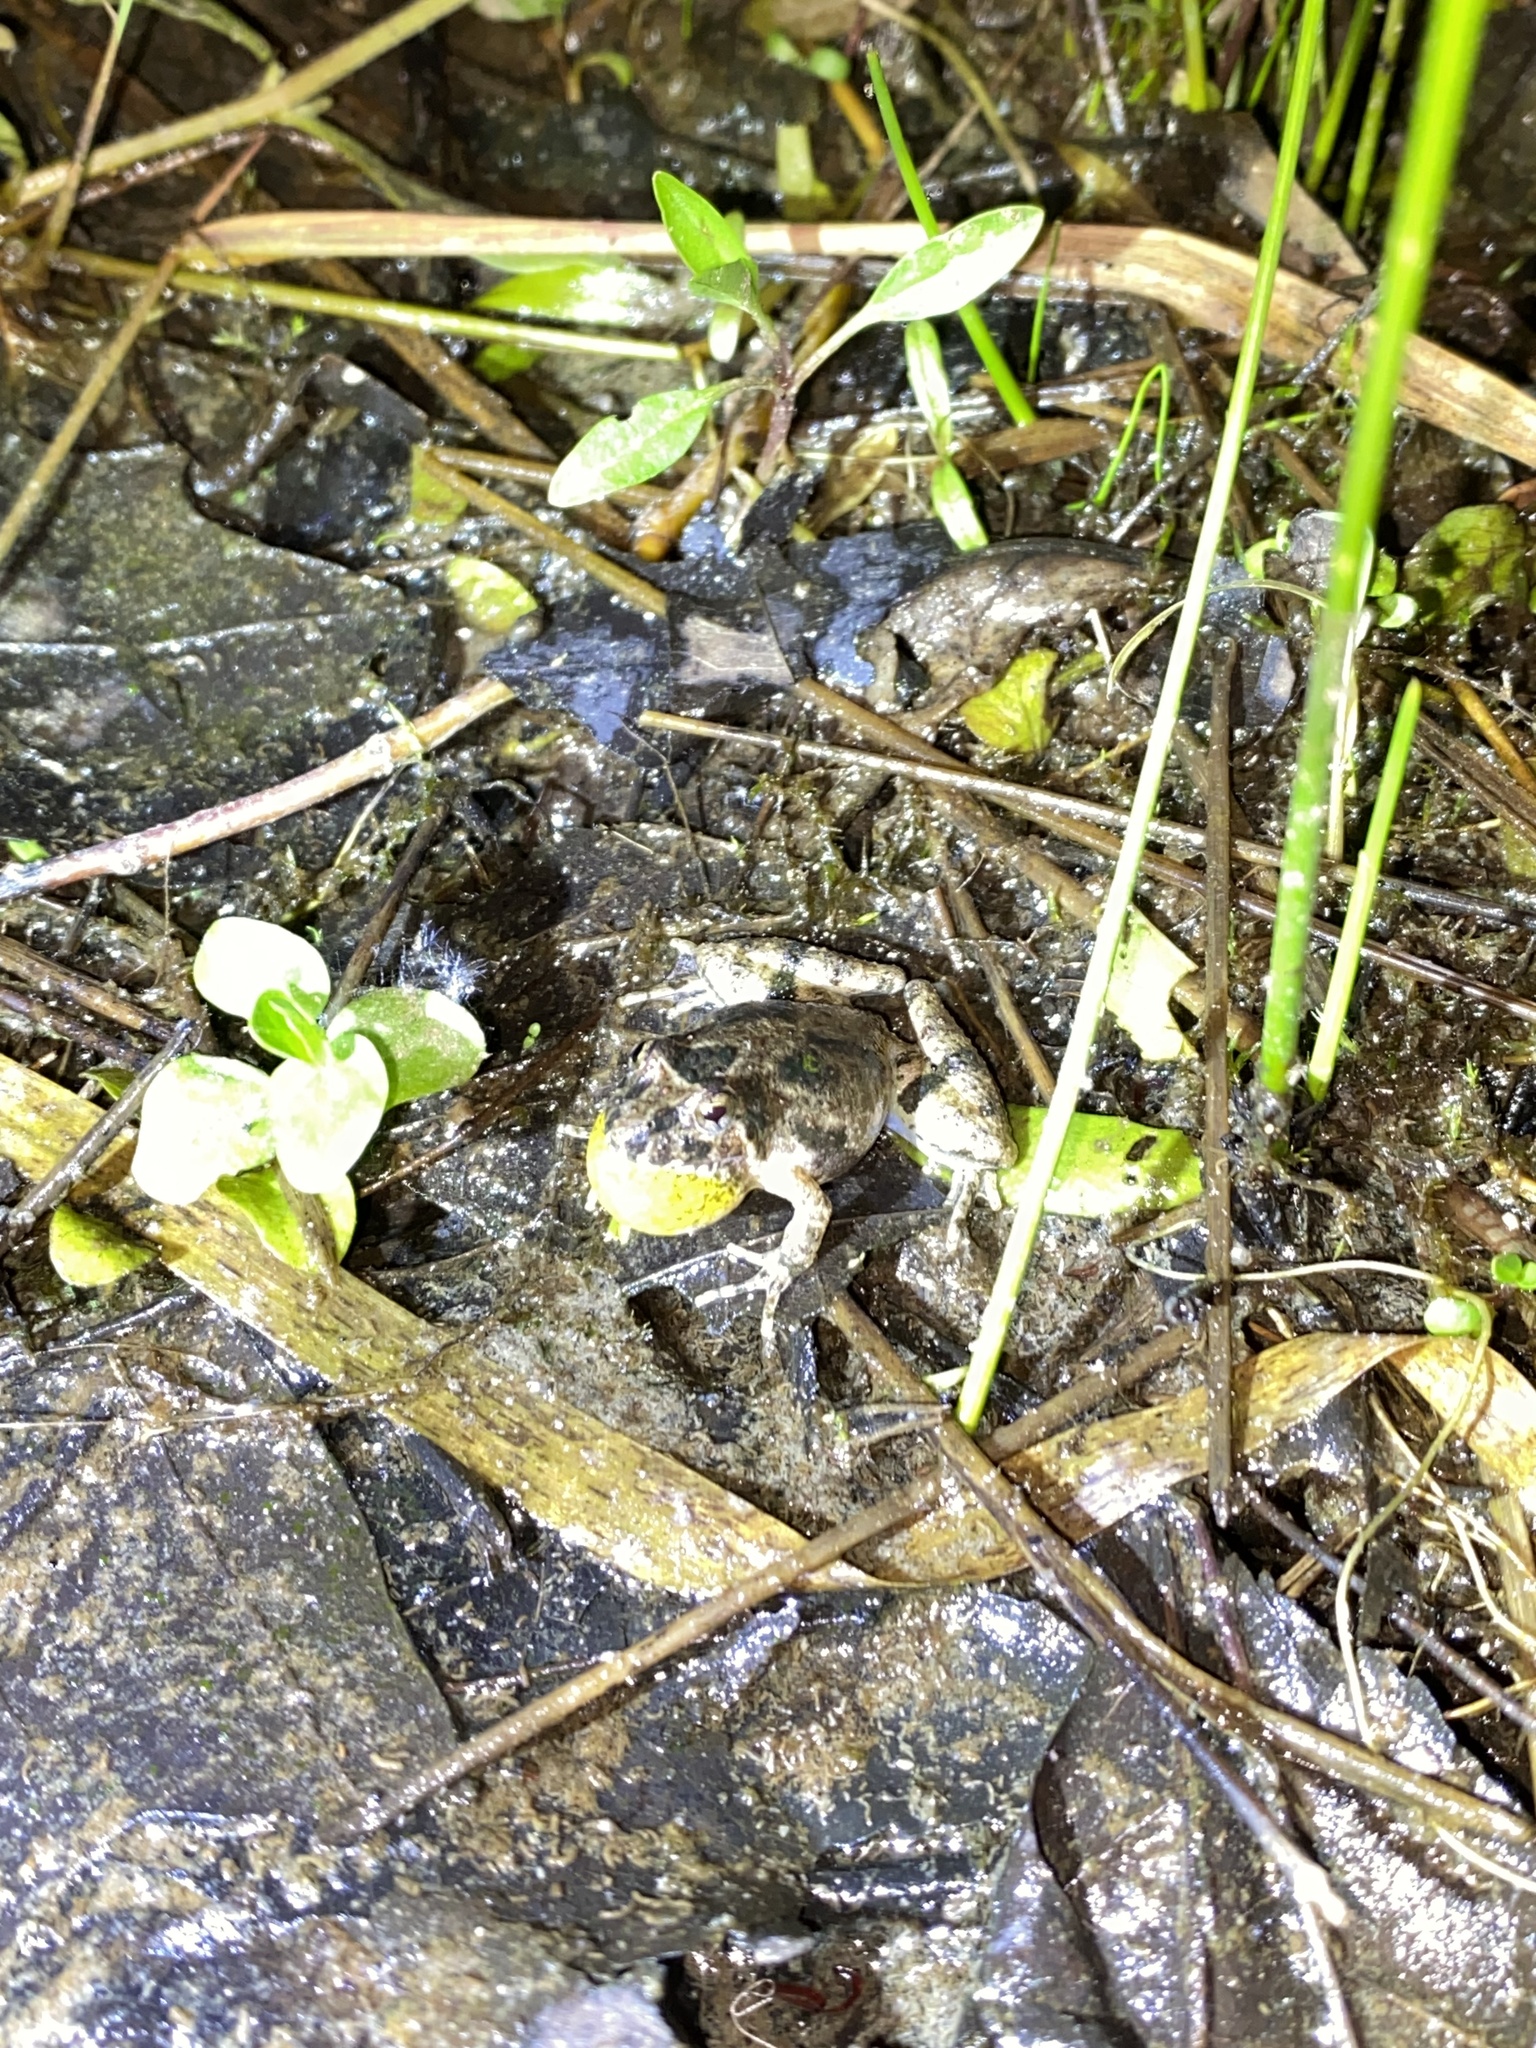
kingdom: Animalia
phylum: Chordata
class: Amphibia
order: Anura
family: Hylidae
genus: Acris
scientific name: Acris blanchardi
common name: Blanchard's cricket frog
